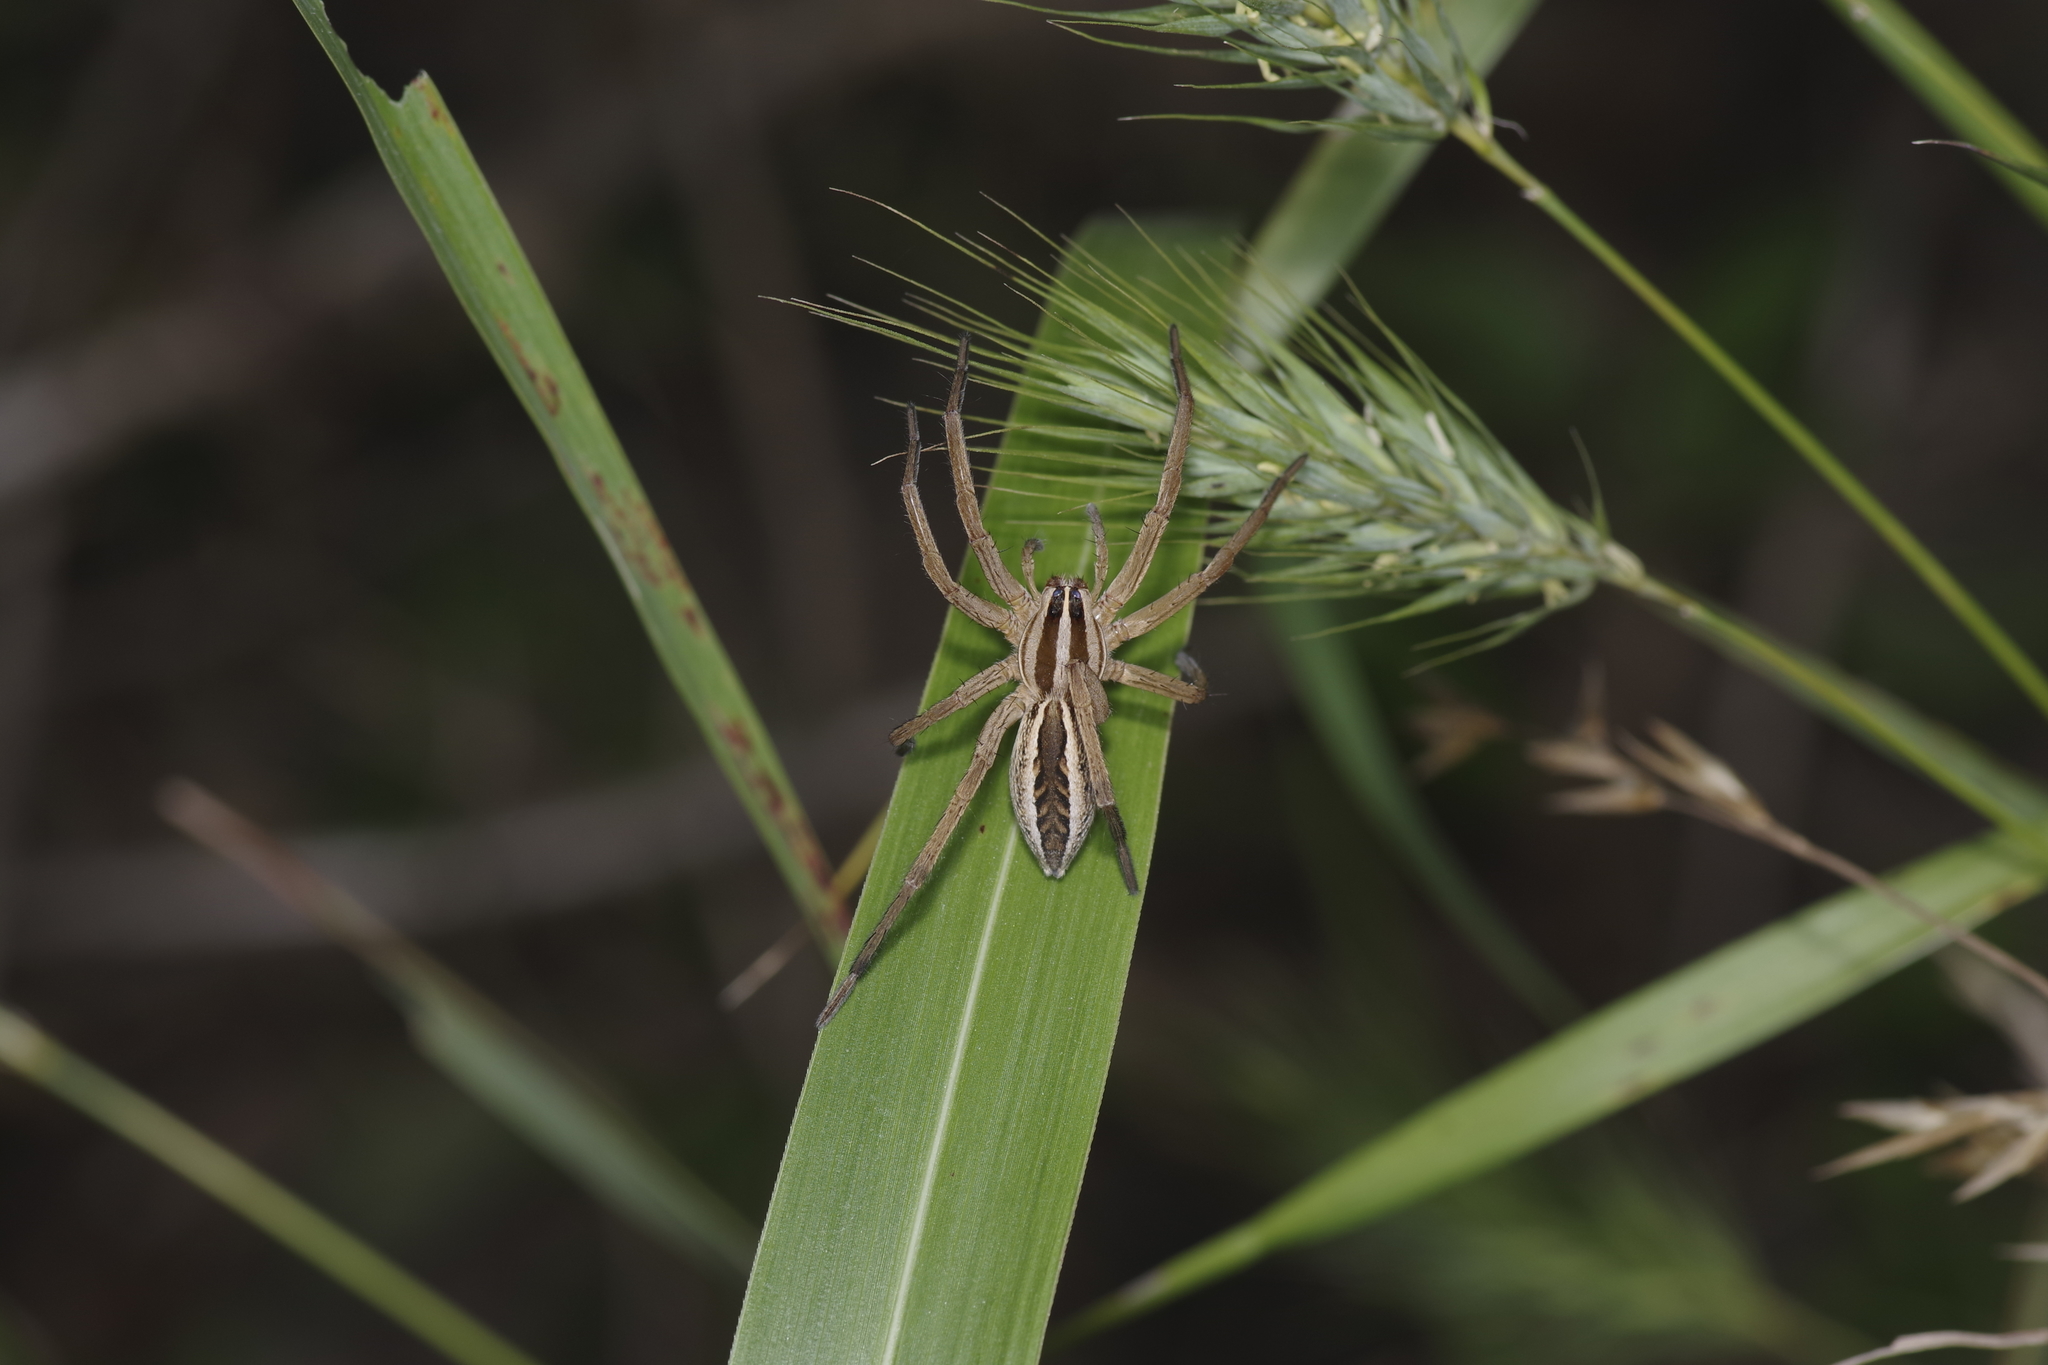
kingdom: Animalia
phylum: Arthropoda
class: Arachnida
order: Araneae
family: Lycosidae
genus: Rabidosa
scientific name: Rabidosa rabida
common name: Rabid wolf spider
